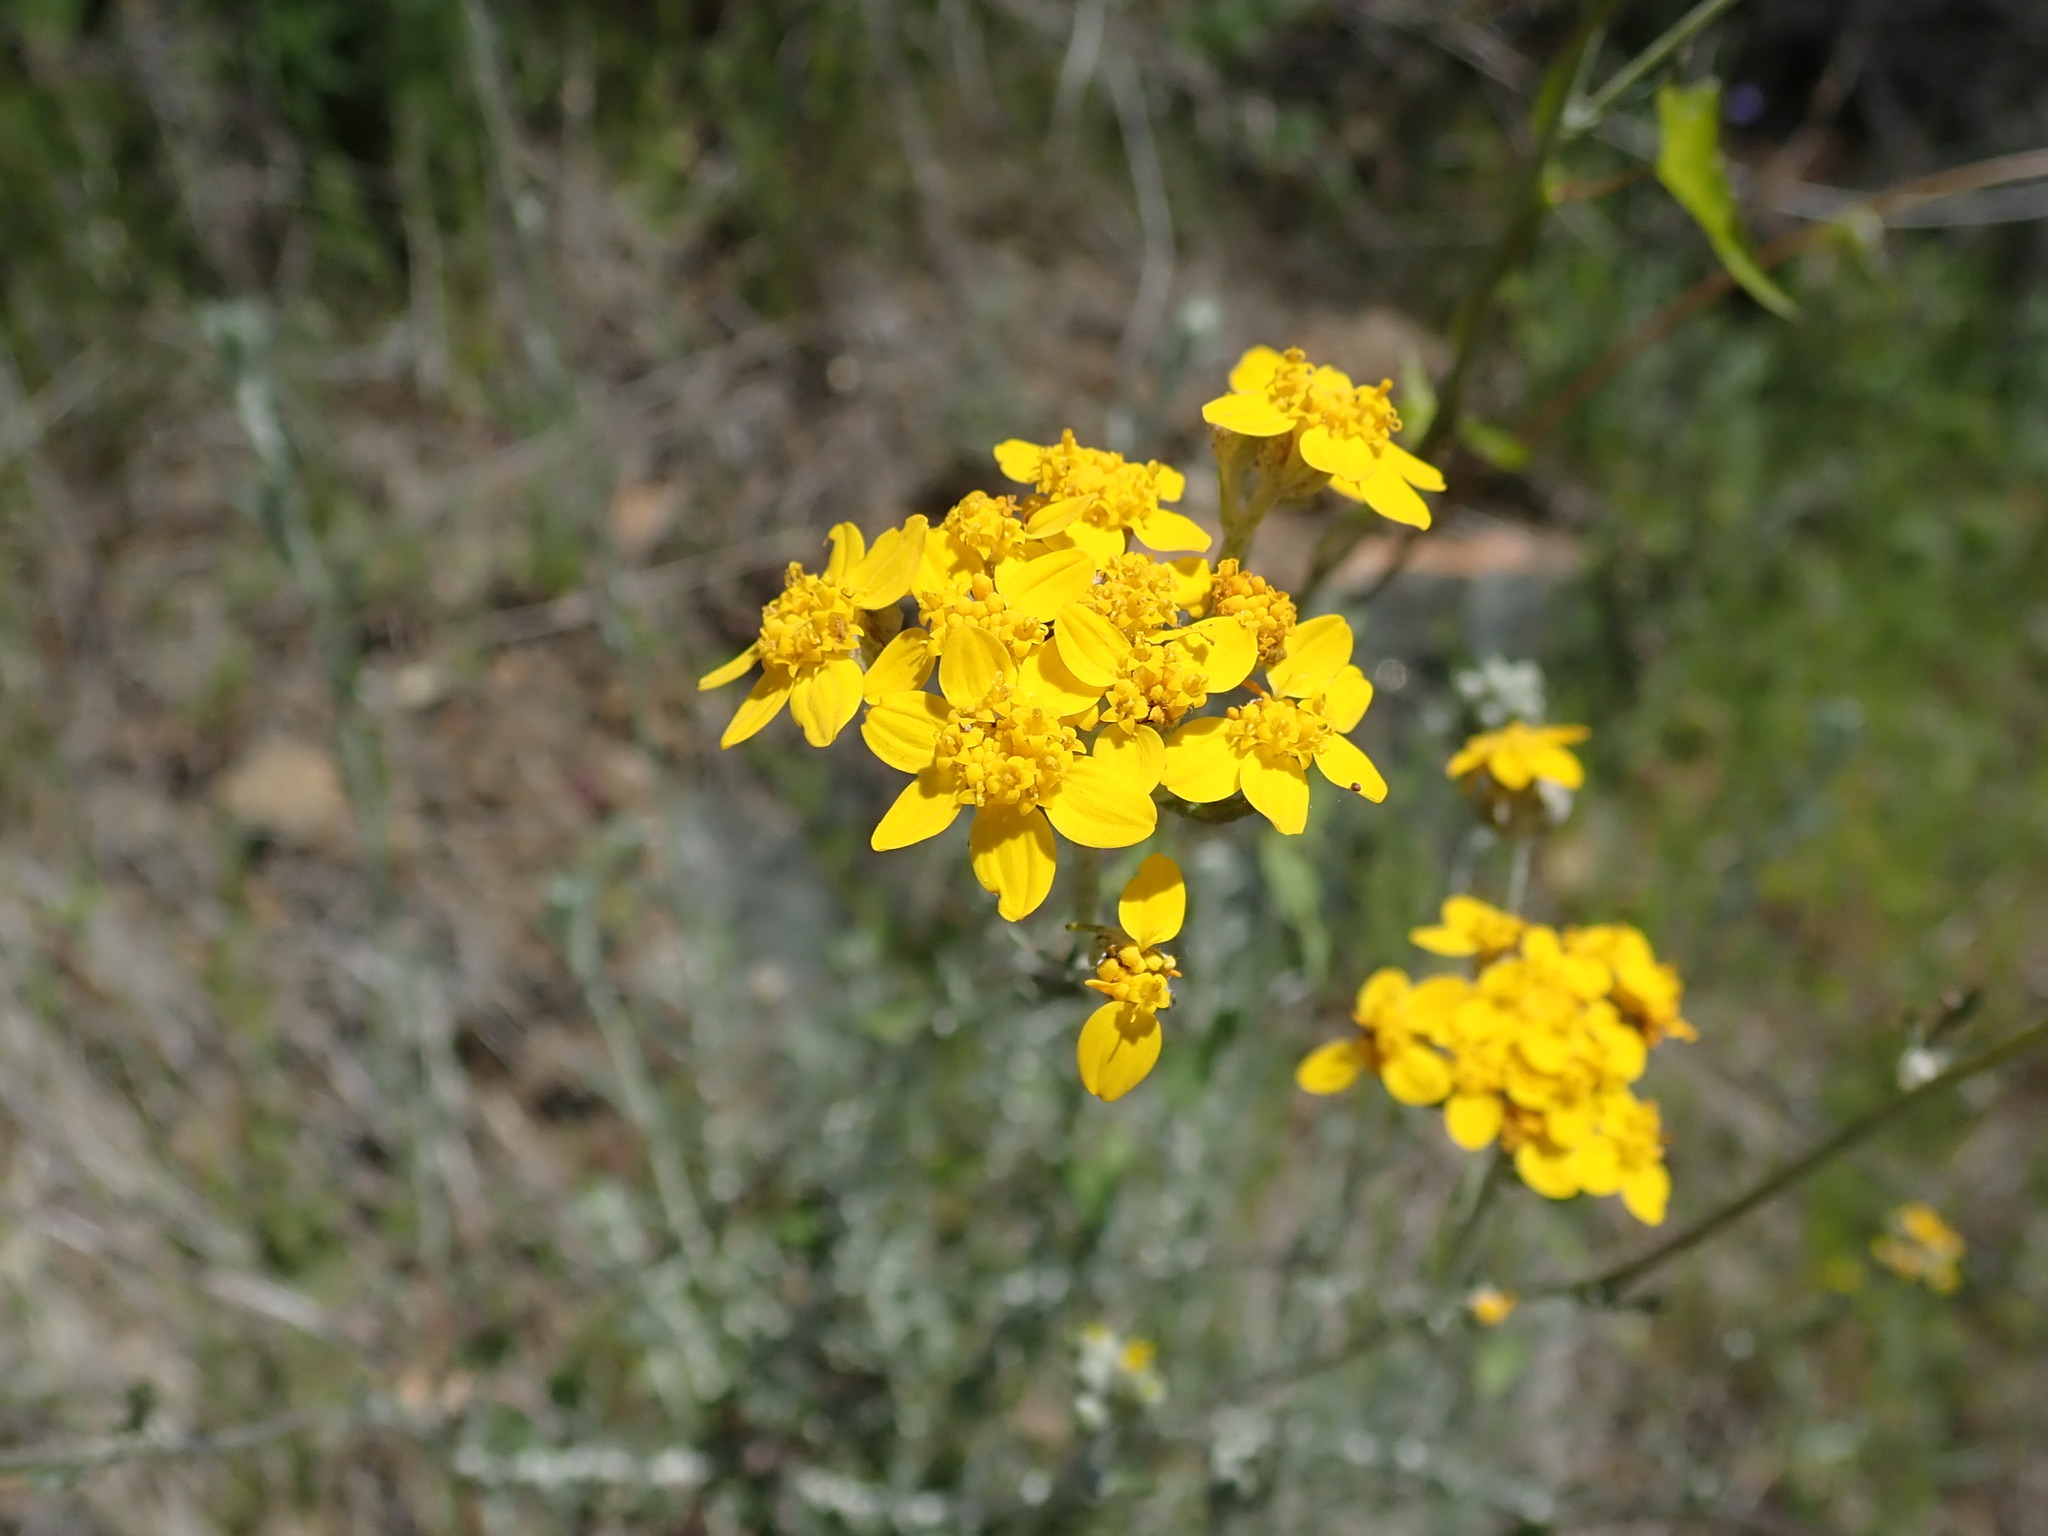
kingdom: Plantae
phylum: Tracheophyta
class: Magnoliopsida
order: Asterales
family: Asteraceae
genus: Eriophyllum
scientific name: Eriophyllum confertiflorum
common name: Golden-yarrow
